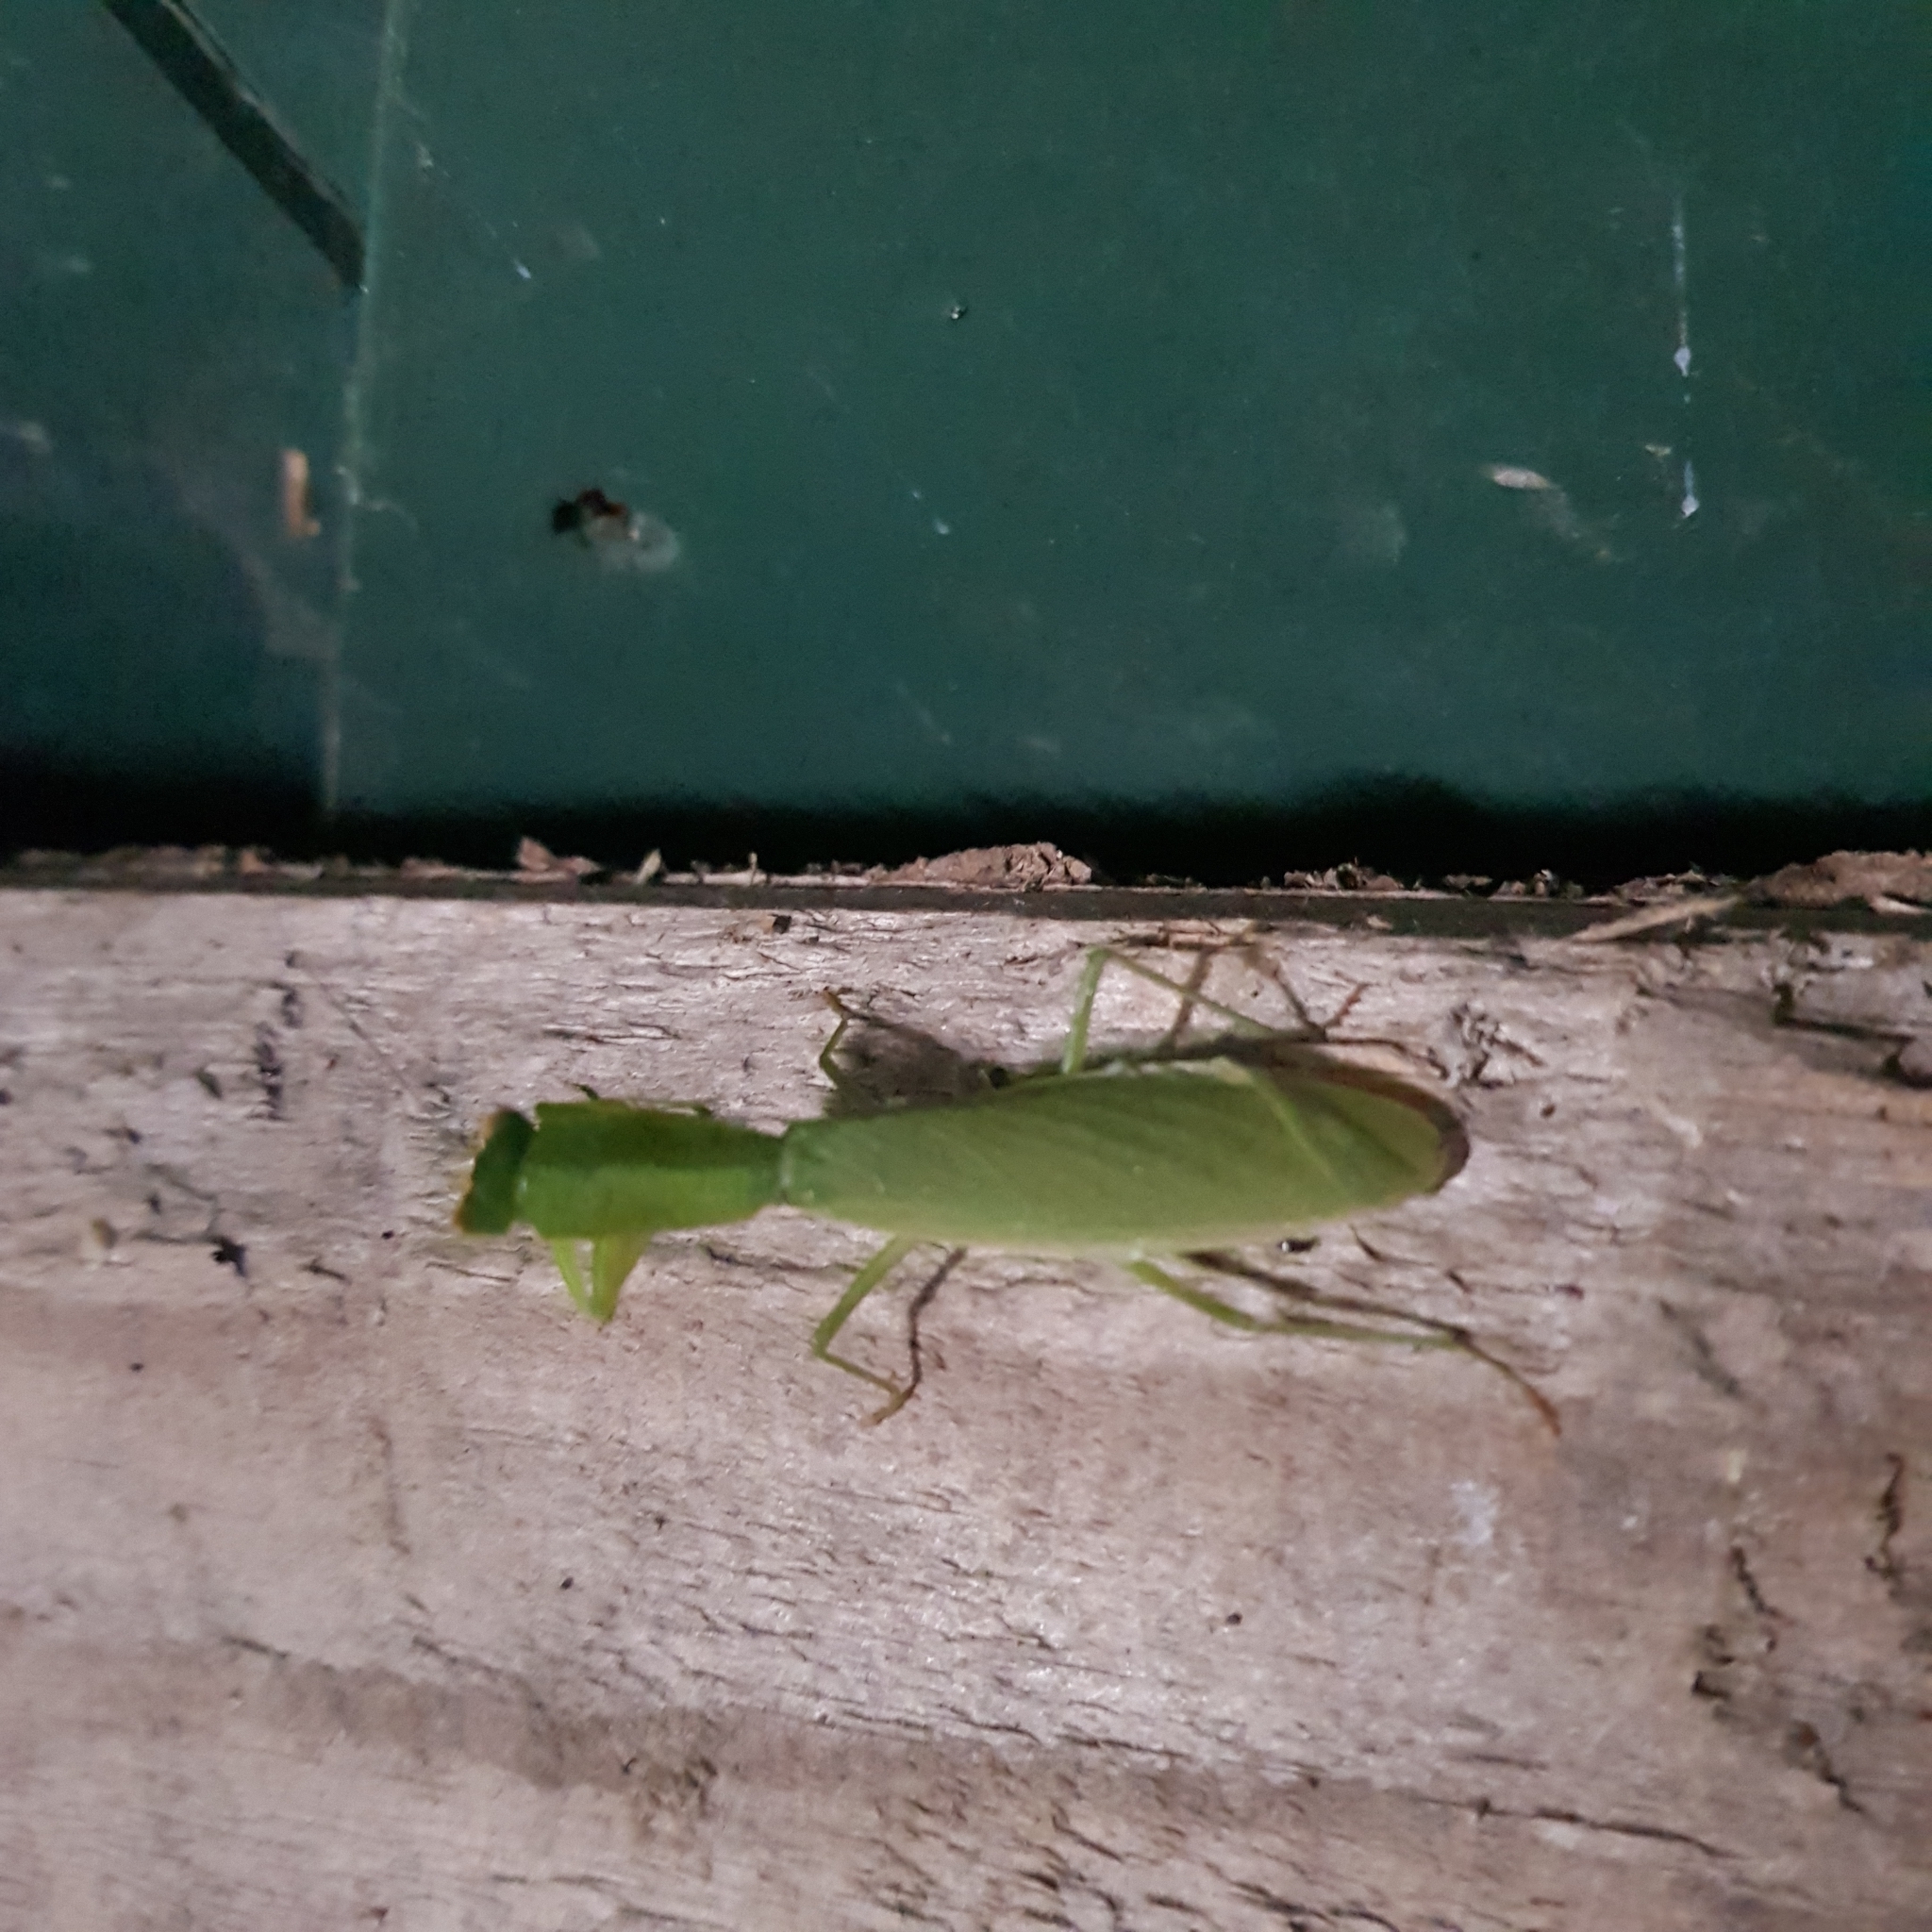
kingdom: Animalia
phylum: Arthropoda
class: Insecta
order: Mantodea
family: Mantidae
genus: Orthodera
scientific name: Orthodera novaezealandiae
